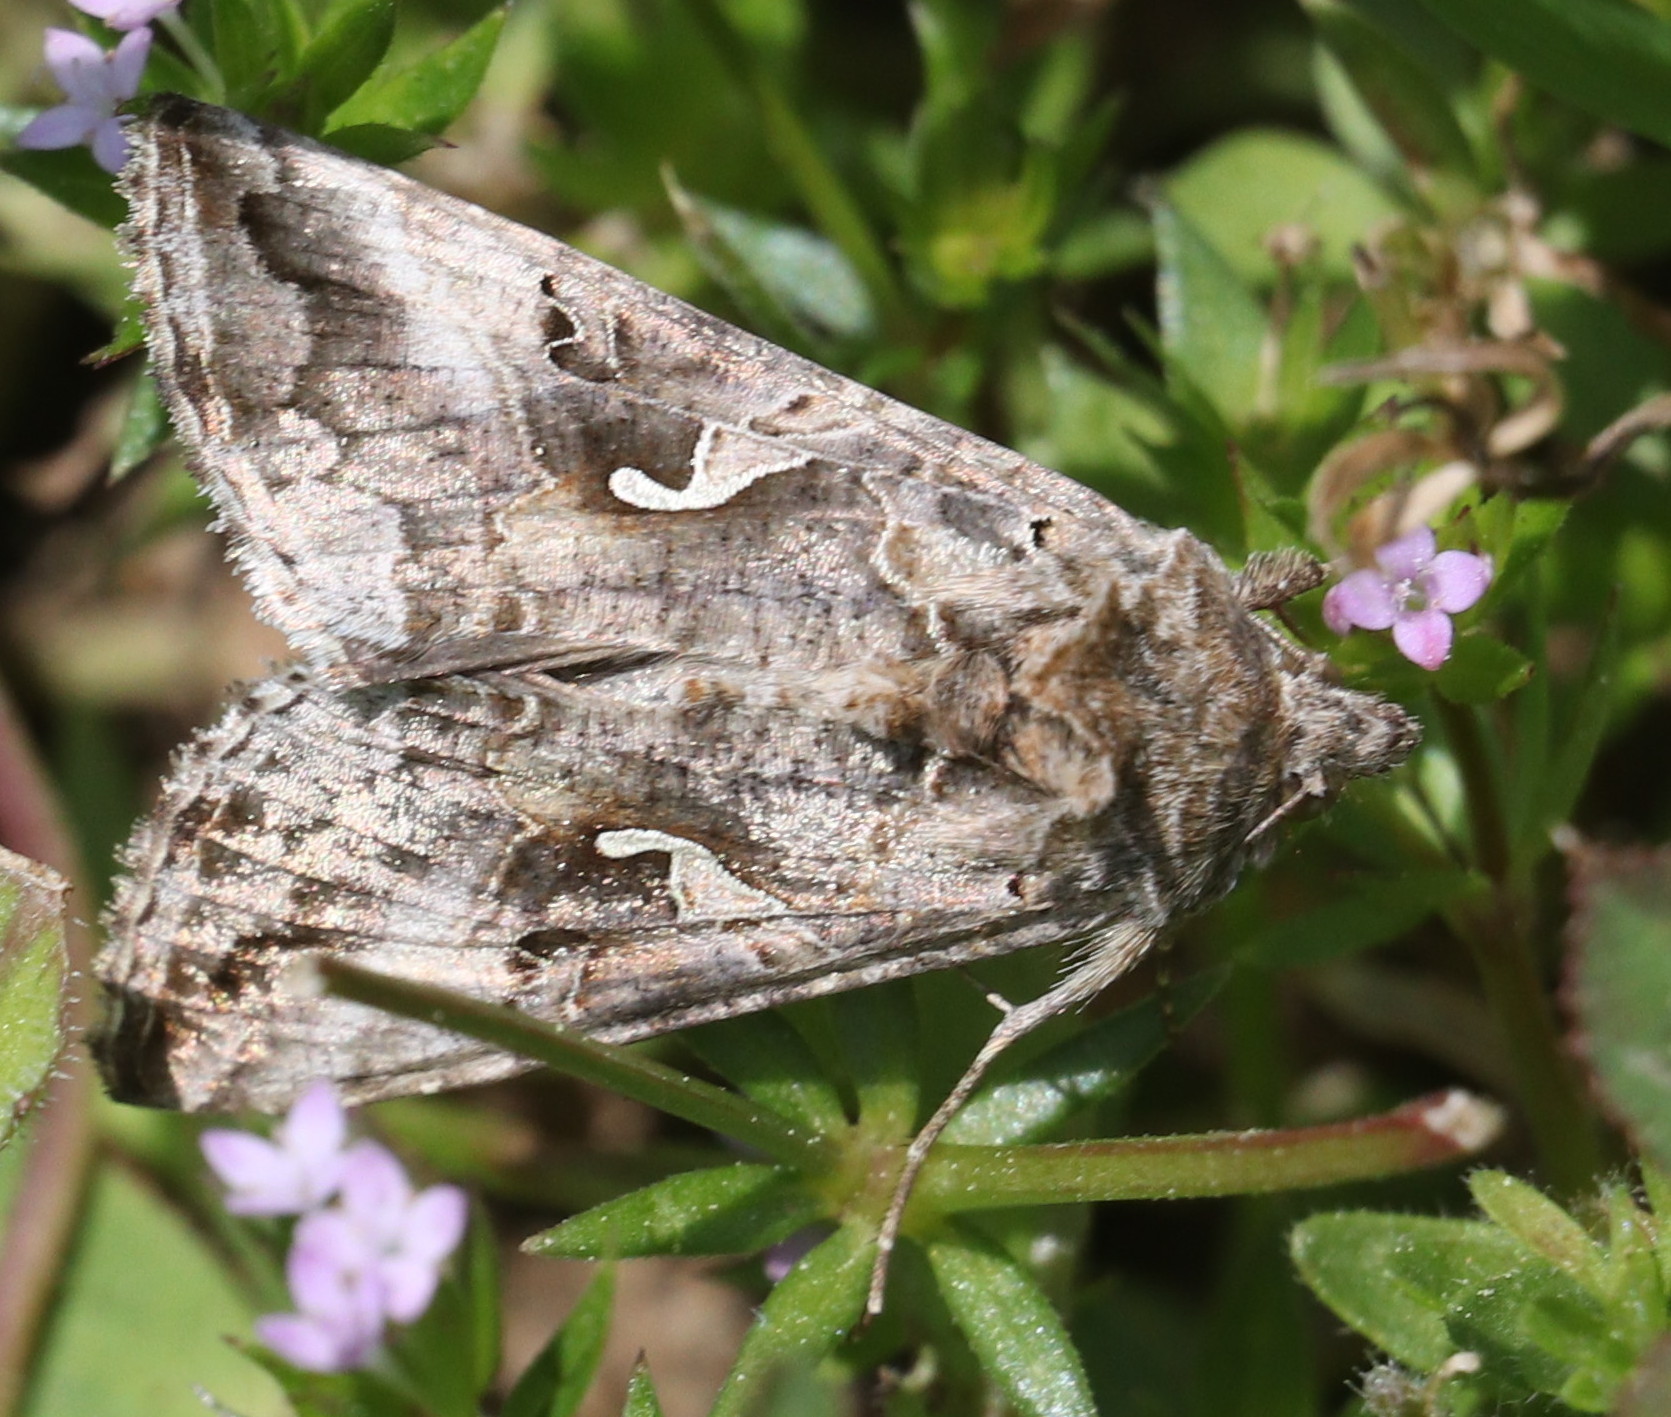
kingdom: Animalia
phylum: Arthropoda
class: Insecta
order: Lepidoptera
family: Noctuidae
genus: Autographa
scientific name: Autographa gamma
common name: Silver y
